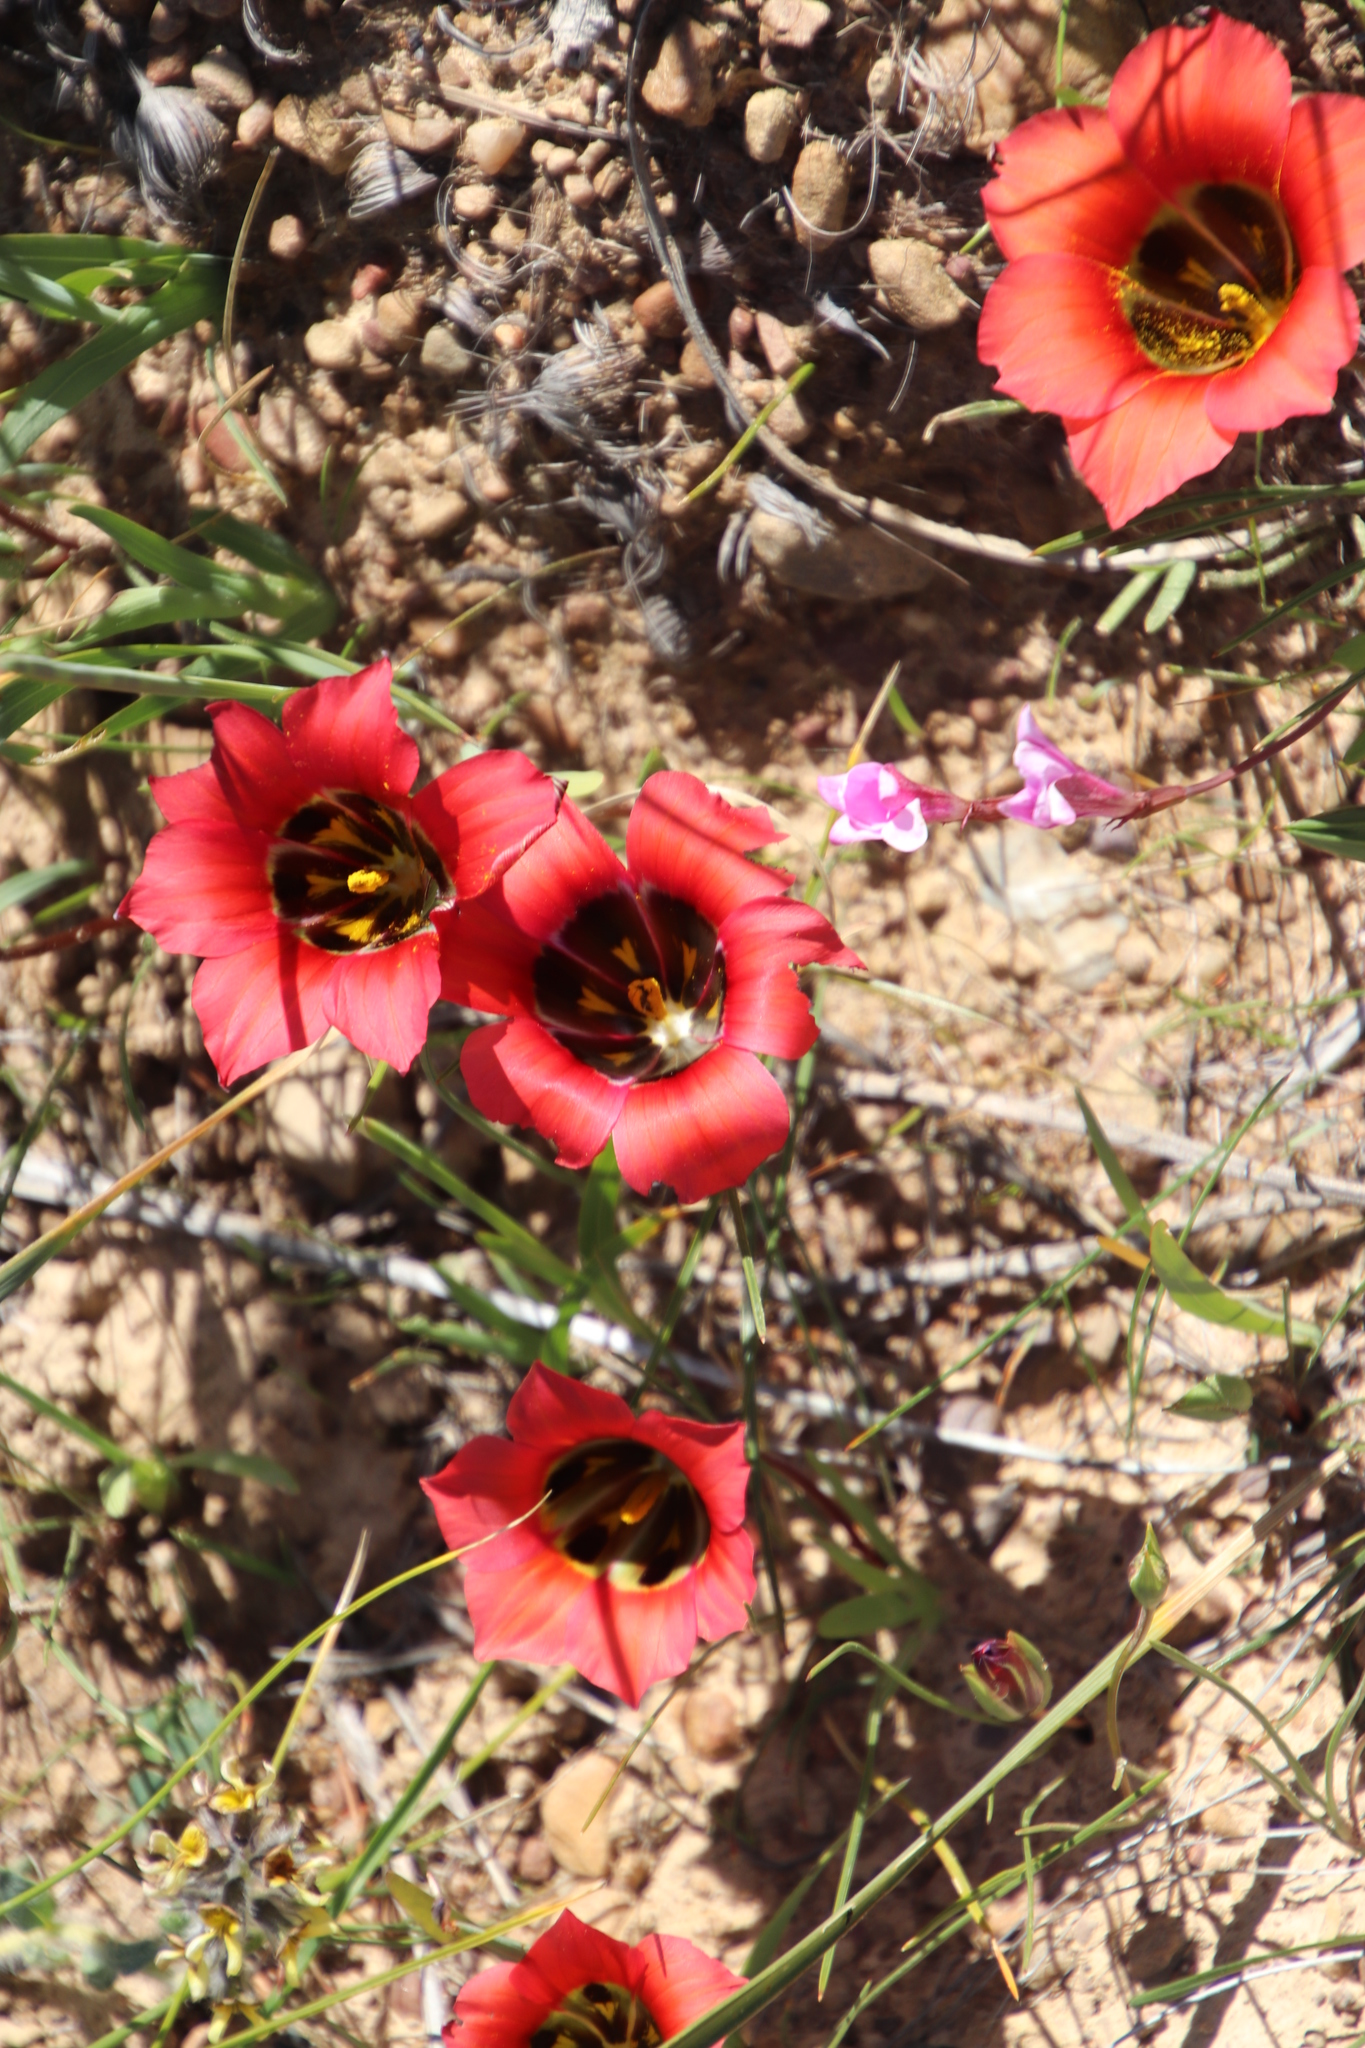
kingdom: Plantae
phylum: Tracheophyta
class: Liliopsida
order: Asparagales
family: Iridaceae
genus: Romulea
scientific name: Romulea sabulosa
